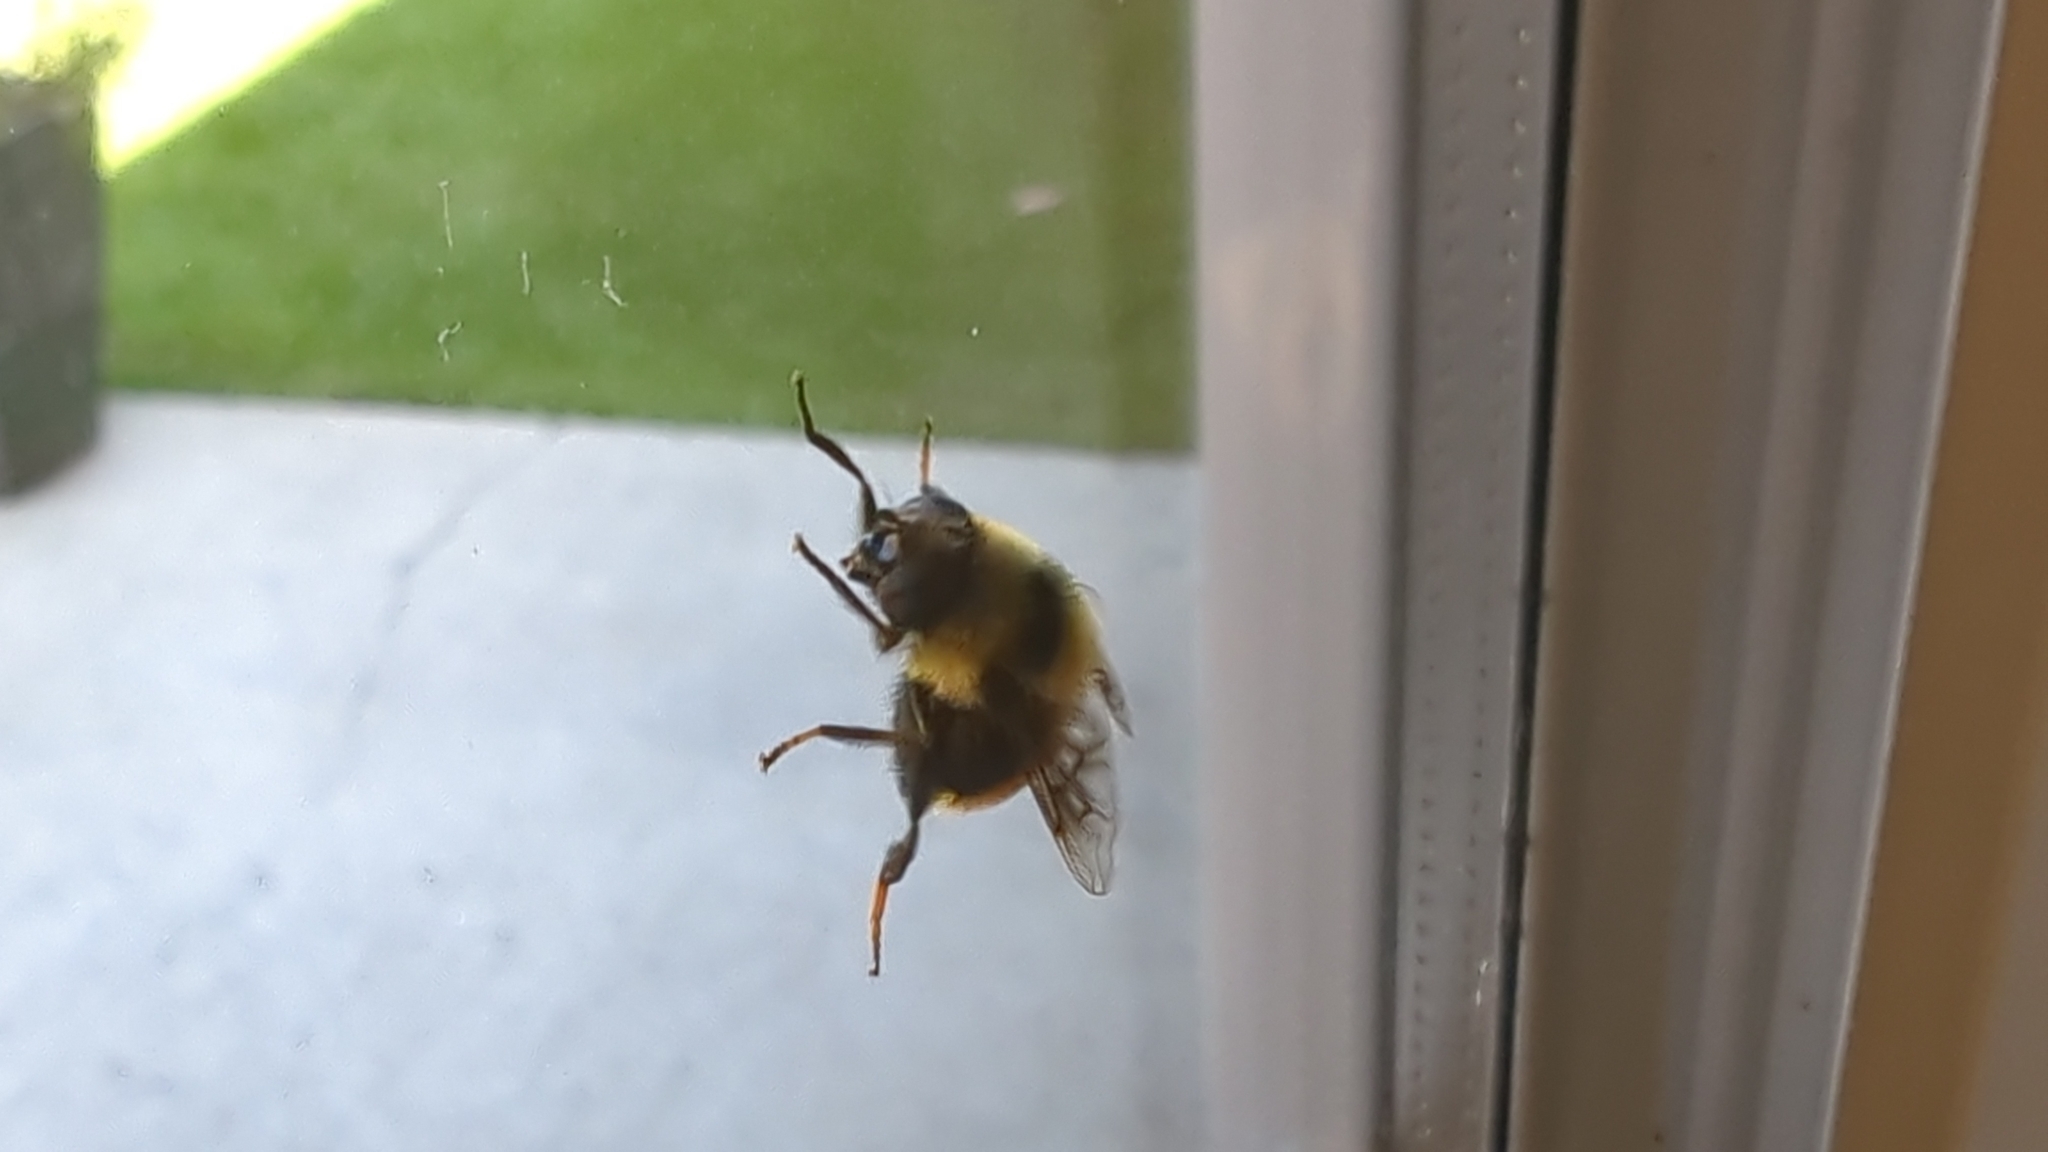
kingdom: Animalia
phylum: Arthropoda
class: Insecta
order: Diptera
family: Syrphidae
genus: Eristalis
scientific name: Eristalis flavipes
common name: Orange-legged drone fly
